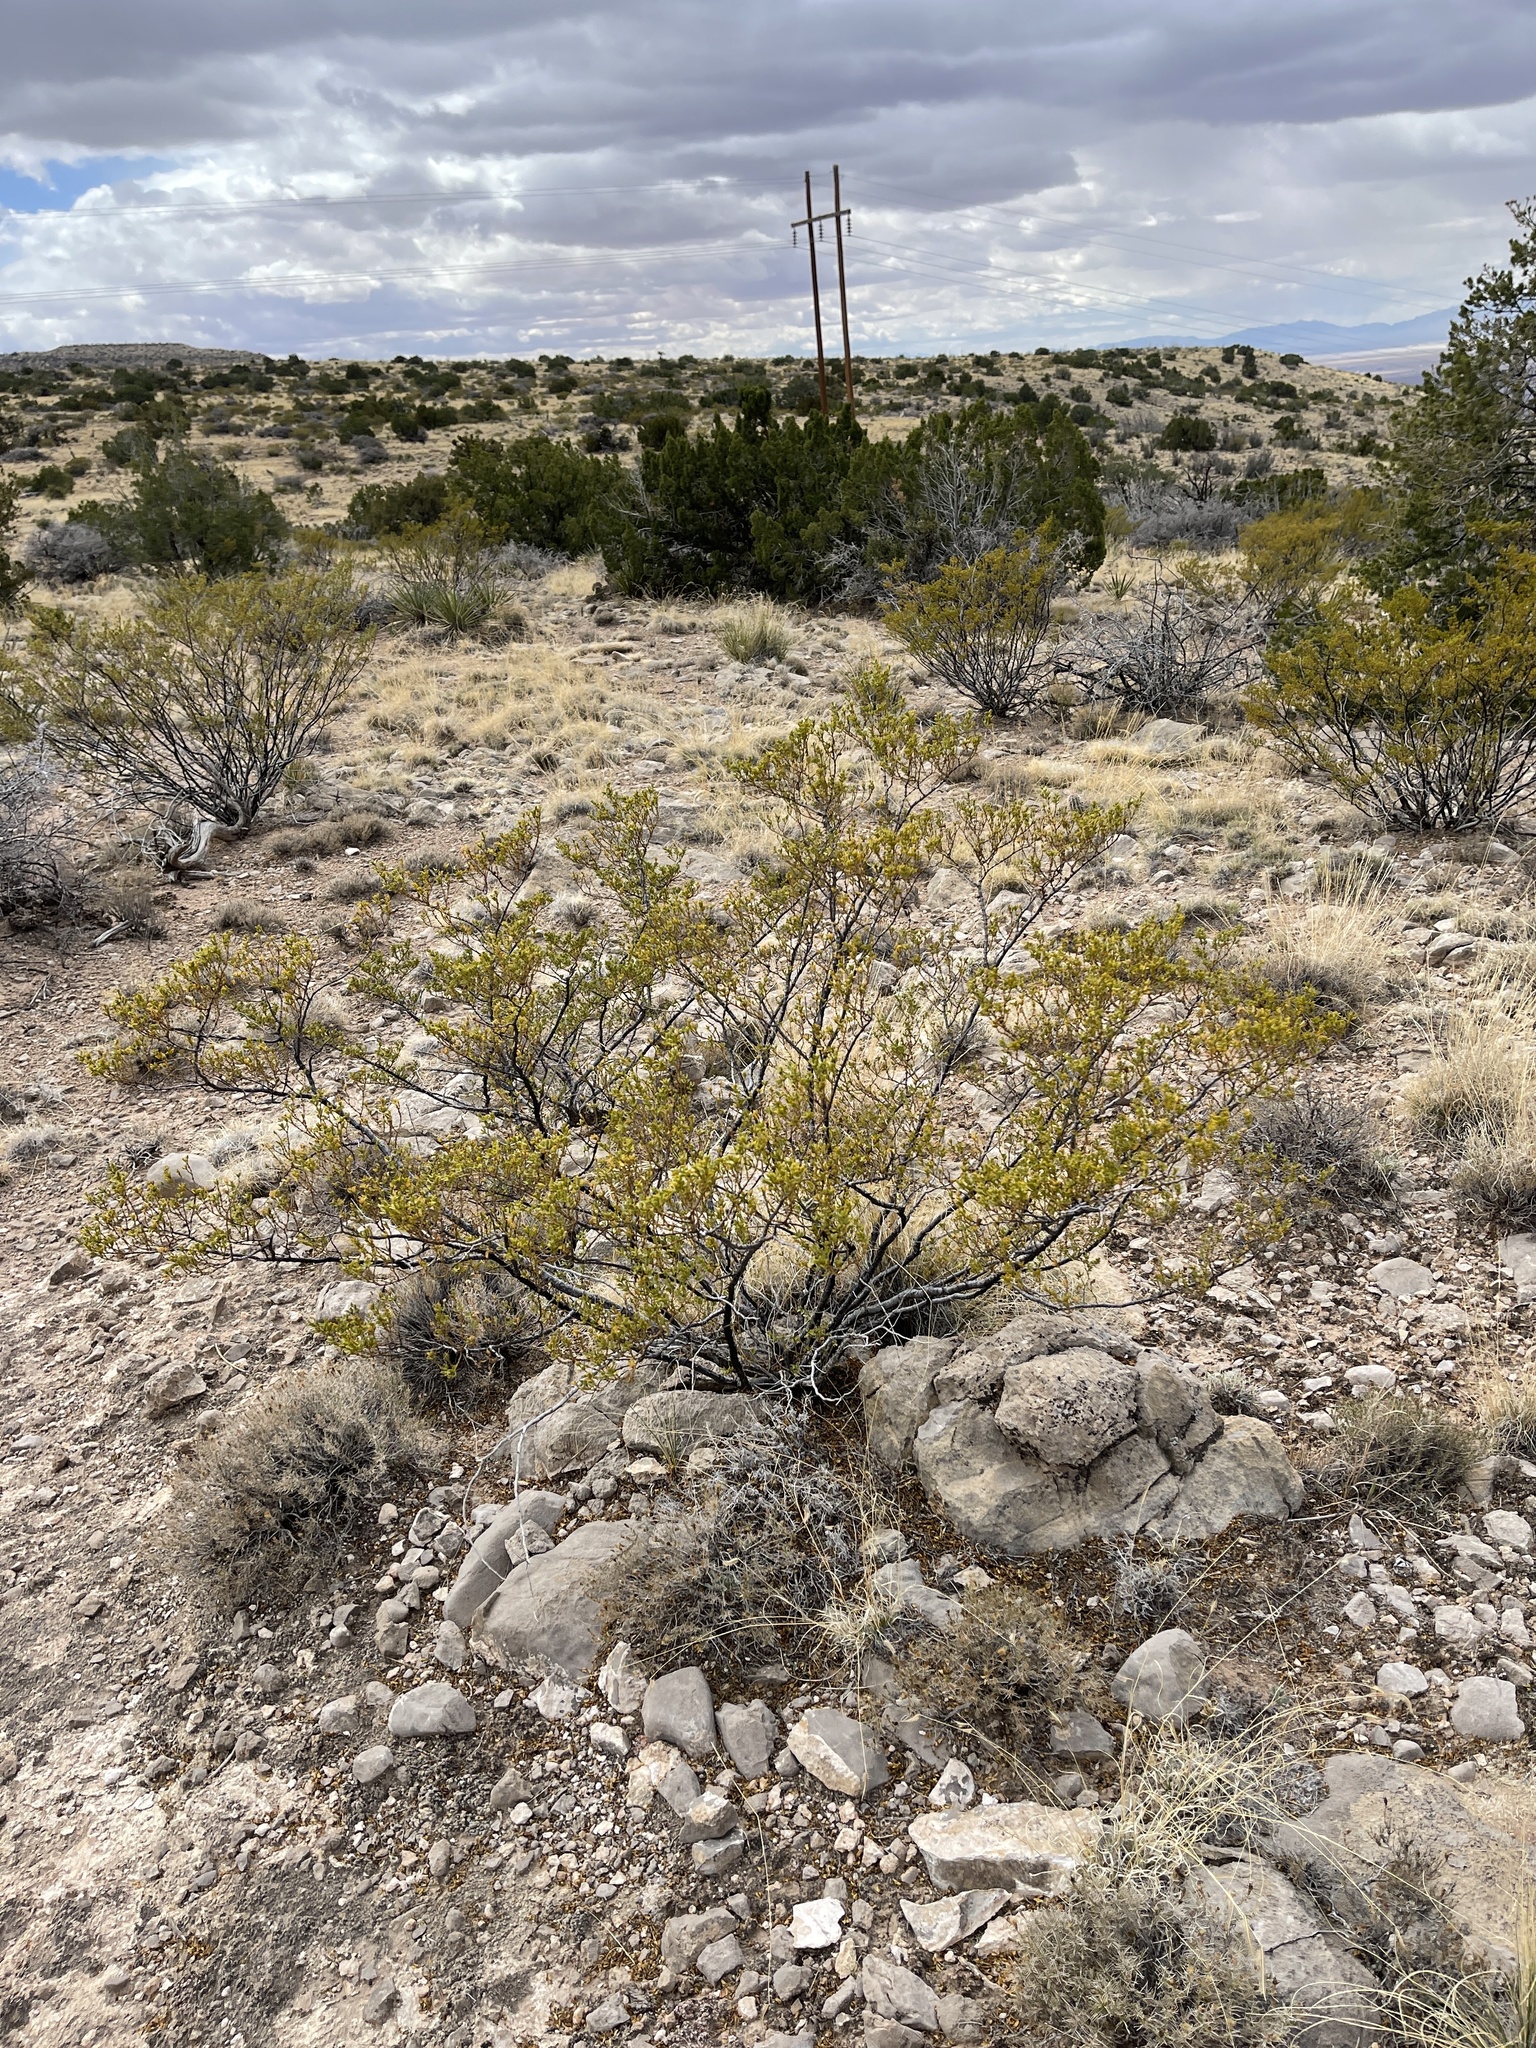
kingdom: Plantae
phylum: Tracheophyta
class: Magnoliopsida
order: Zygophyllales
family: Zygophyllaceae
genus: Larrea
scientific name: Larrea tridentata
